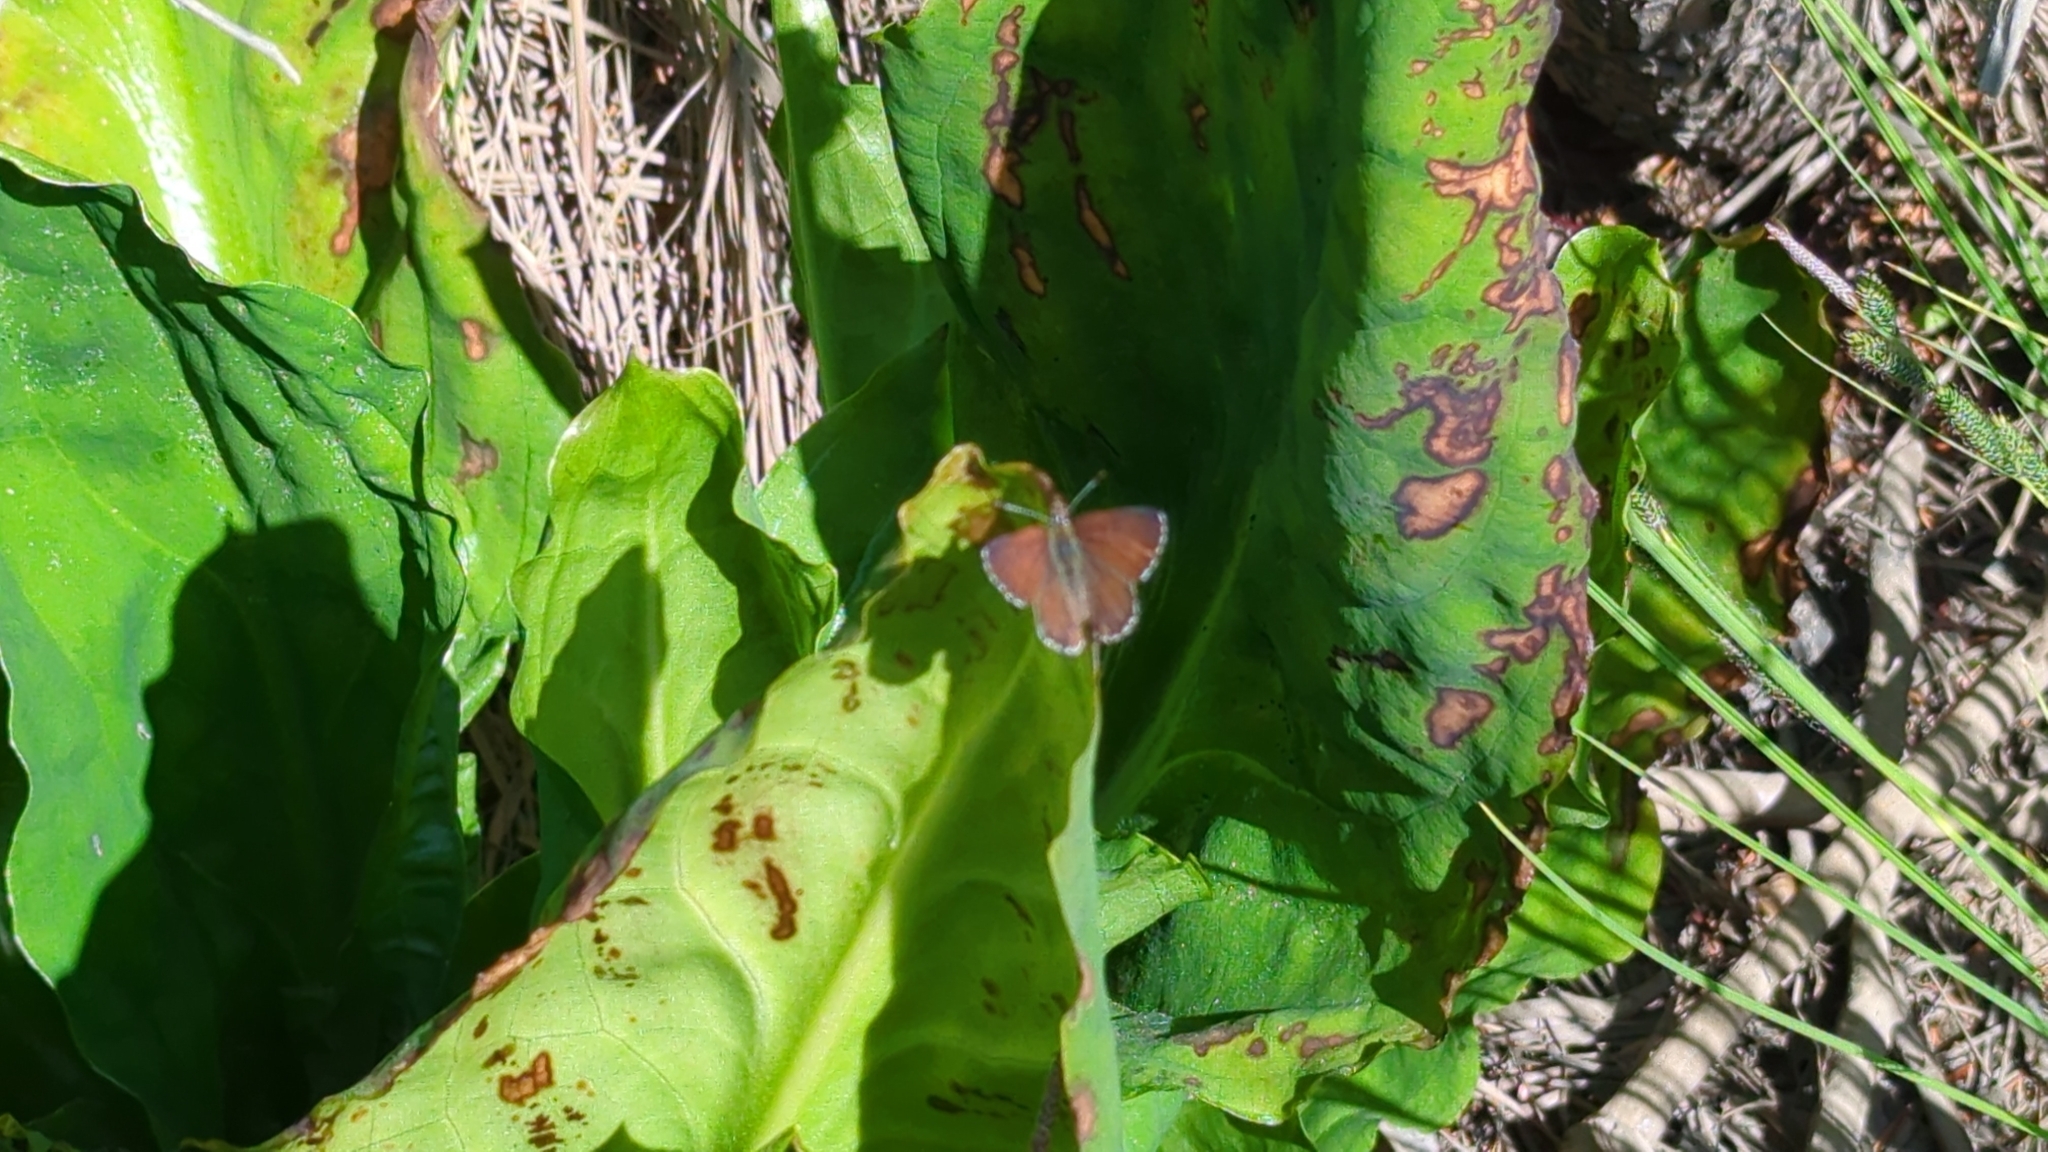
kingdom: Animalia
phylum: Arthropoda
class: Insecta
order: Lepidoptera
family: Lycaenidae
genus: Tharsalea
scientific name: Tharsalea mariposa
